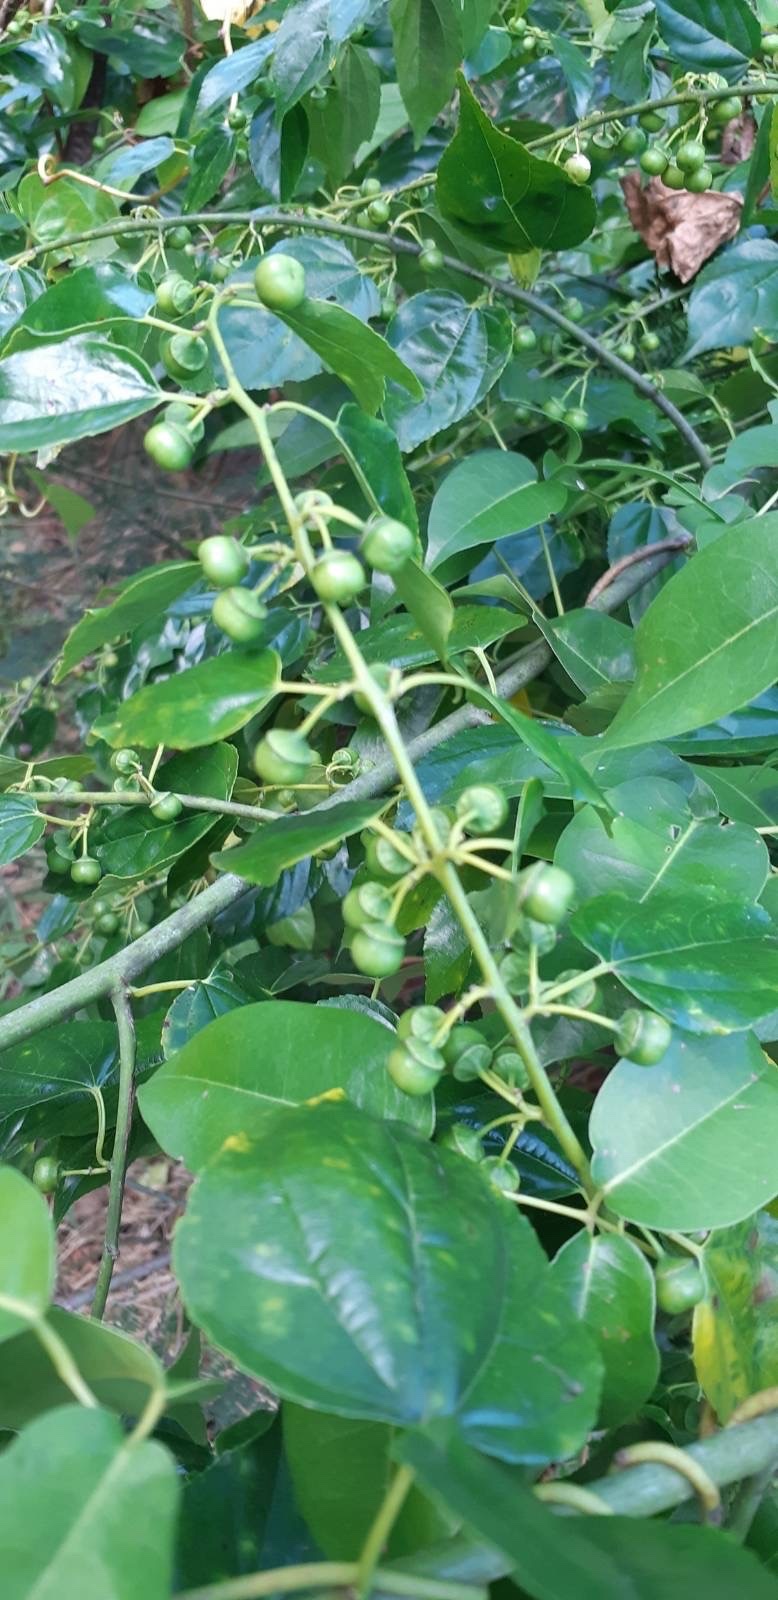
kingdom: Plantae
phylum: Tracheophyta
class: Magnoliopsida
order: Rosales
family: Rhamnaceae
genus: Colubrina
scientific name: Colubrina asiatica
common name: Asian nakedwood
